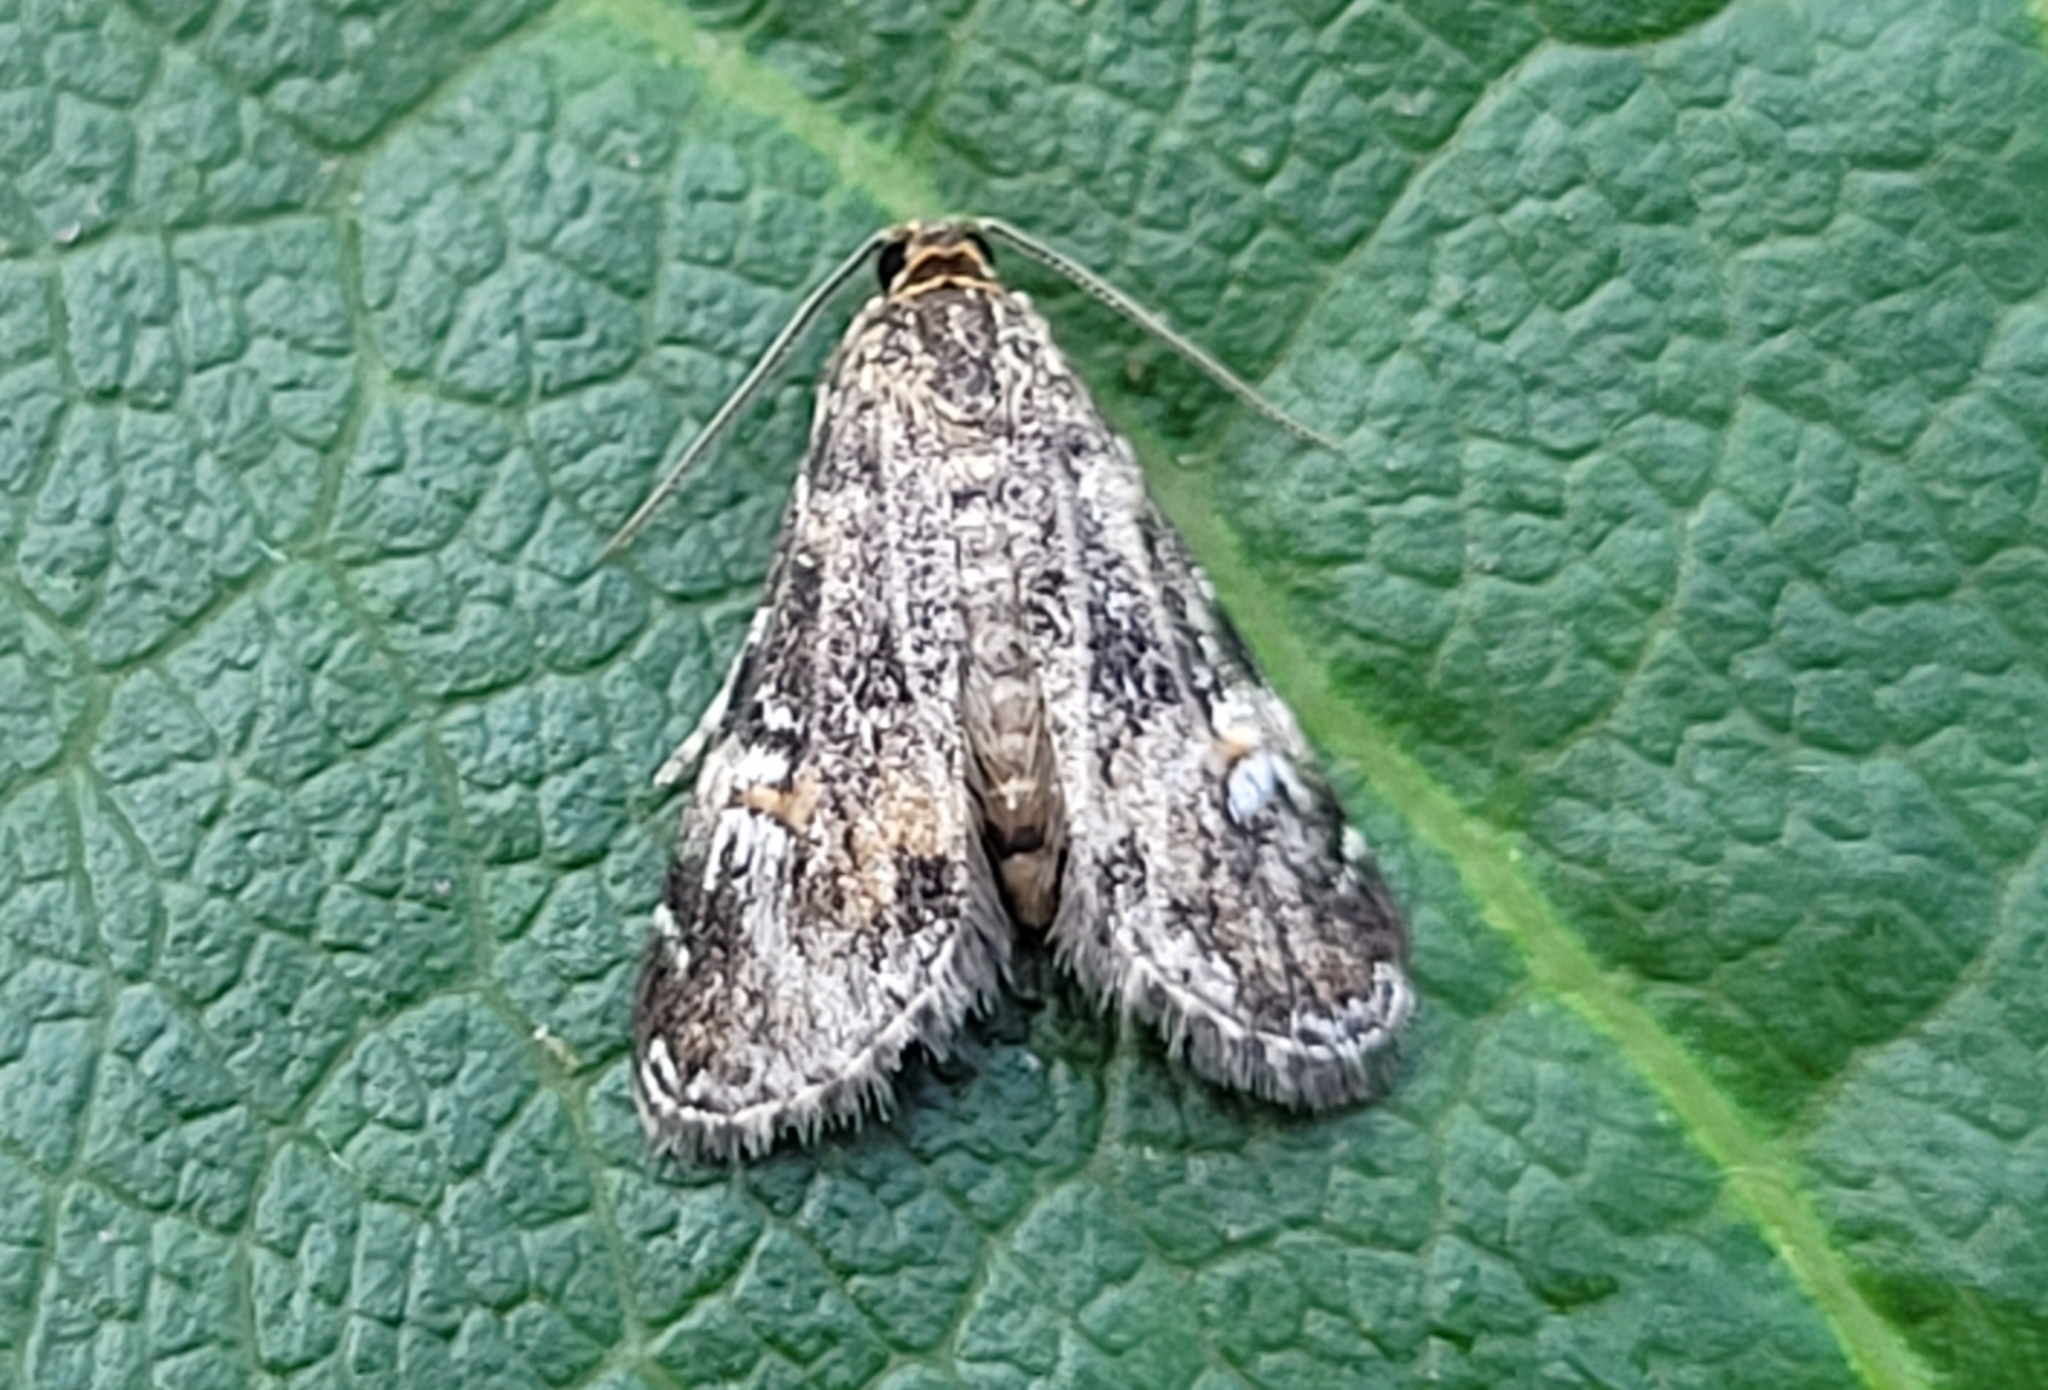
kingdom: Animalia
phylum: Arthropoda
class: Insecta
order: Lepidoptera
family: Crambidae
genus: Elophila
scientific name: Elophila obliteralis
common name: Waterlily leafcutter moth
